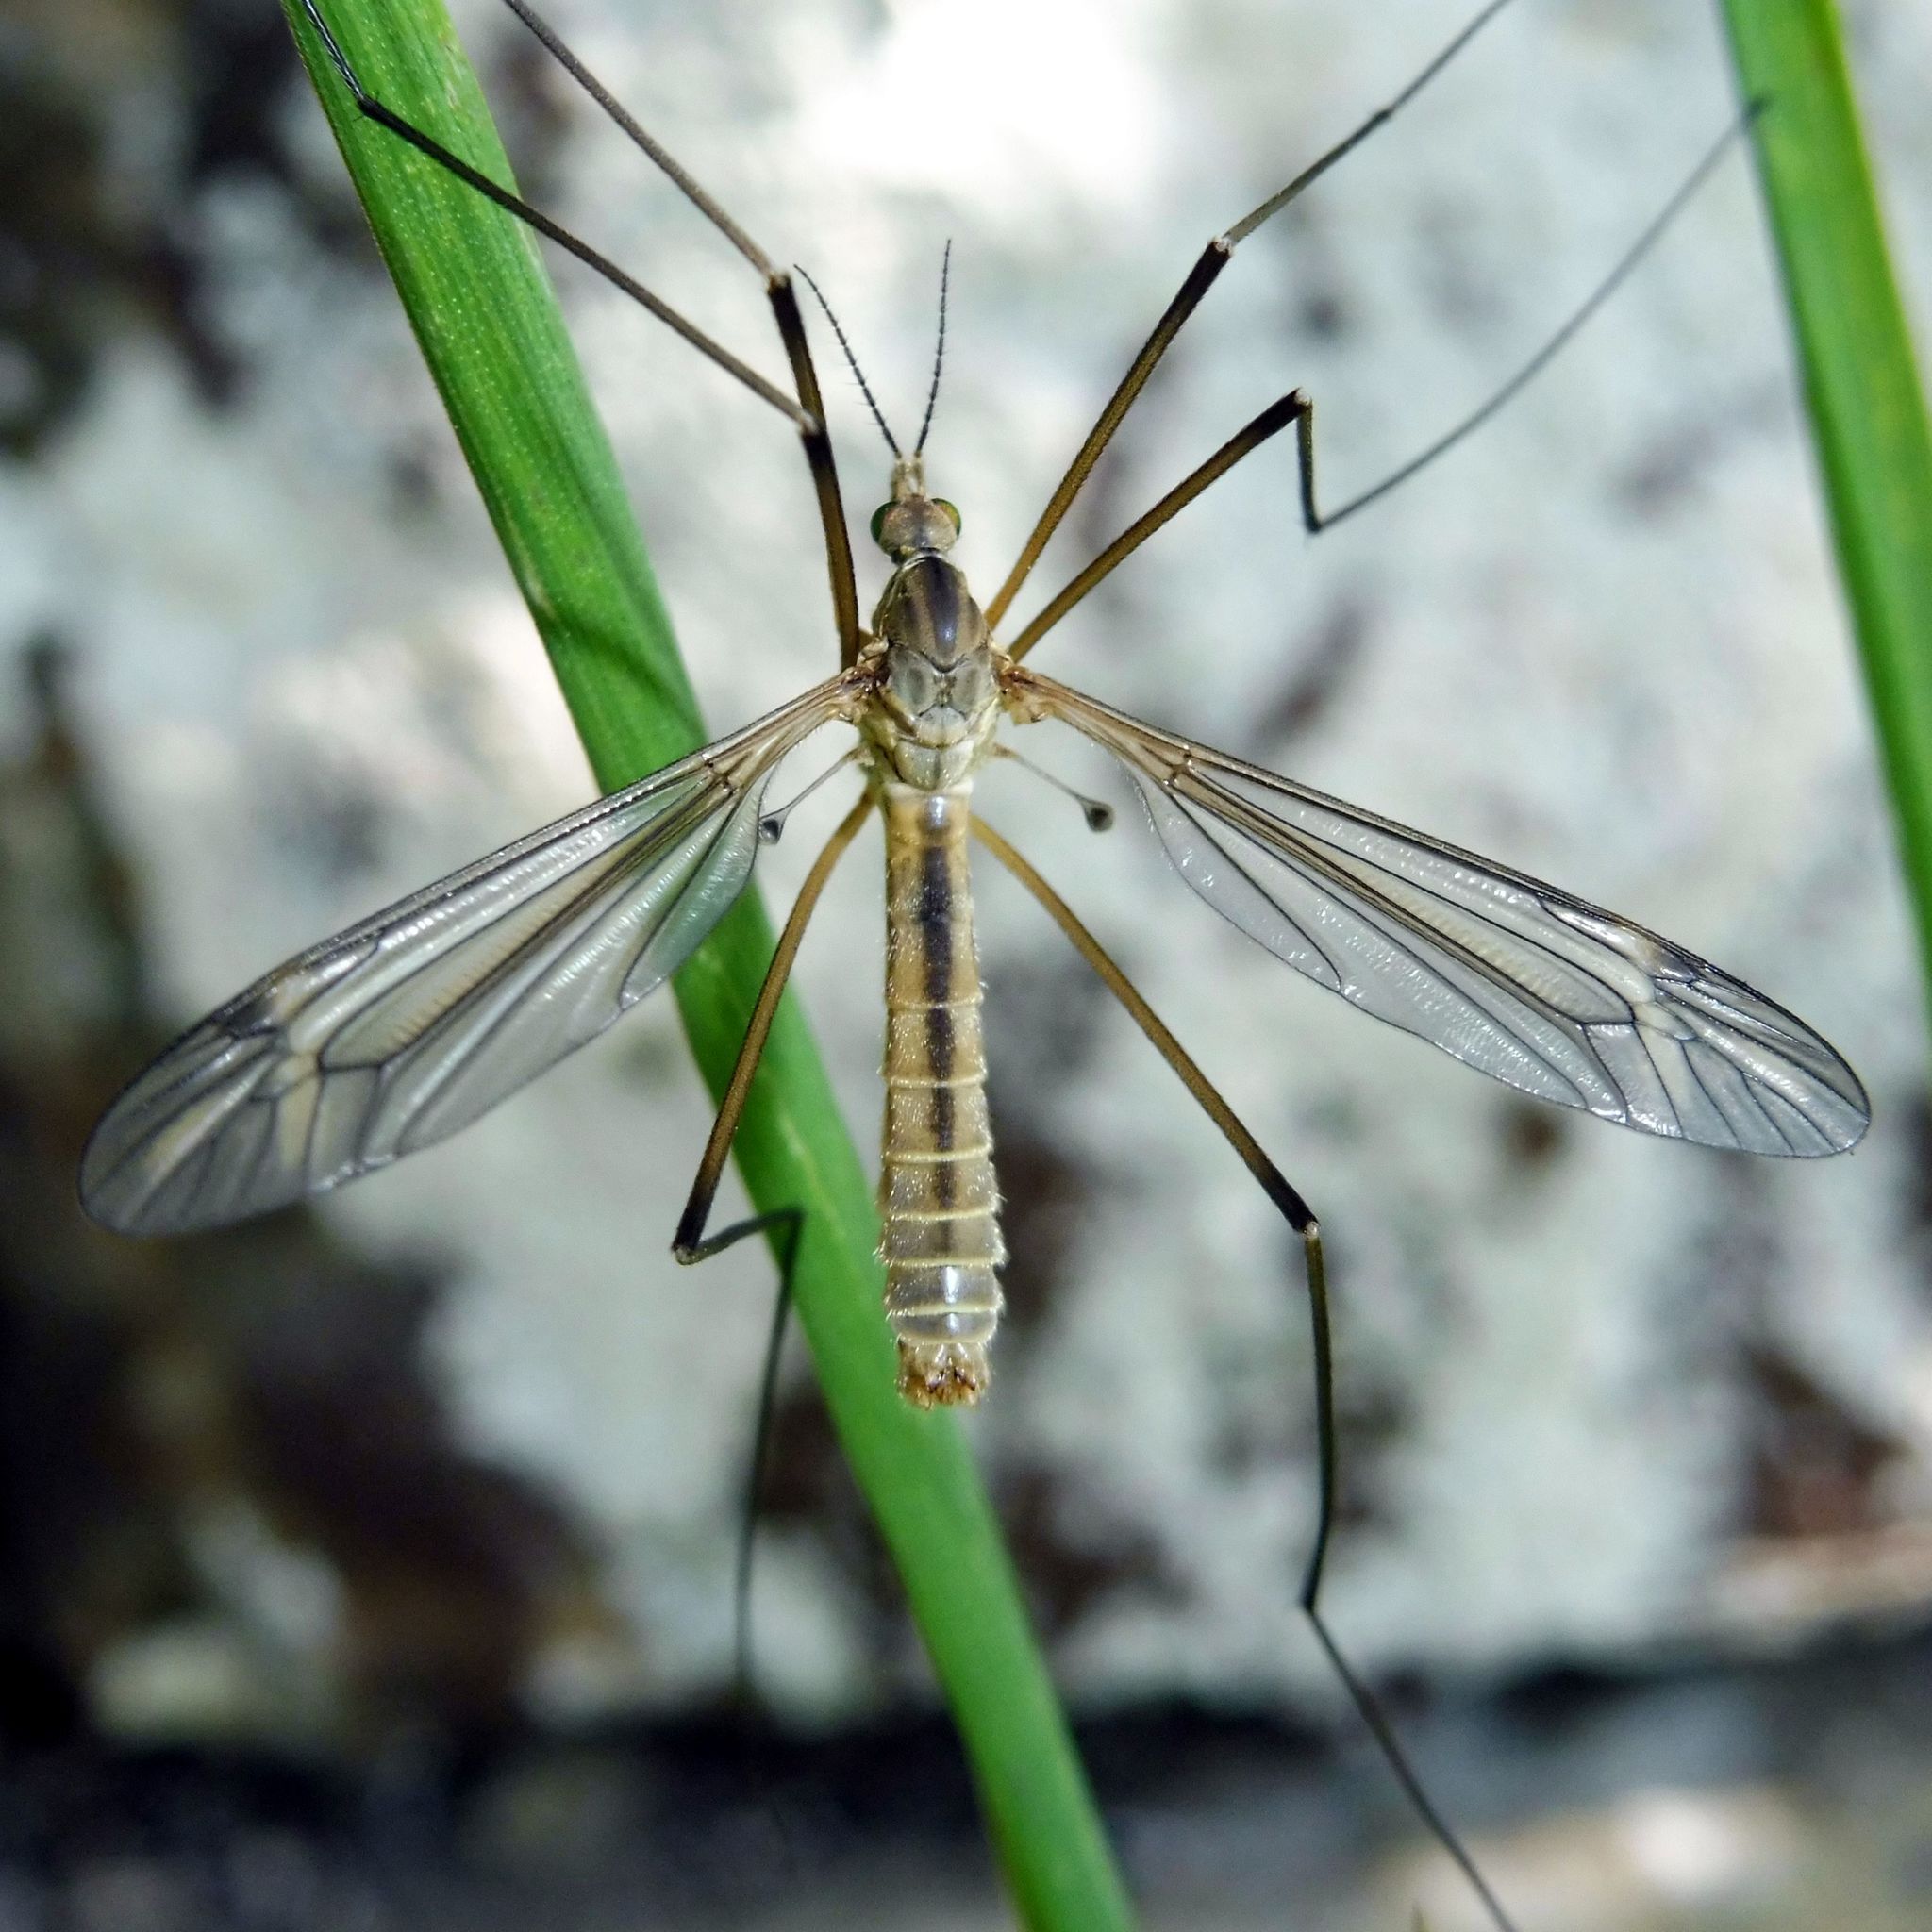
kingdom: Animalia
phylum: Arthropoda
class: Insecta
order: Diptera
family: Tipulidae
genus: Tipula
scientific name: Tipula vernalis
